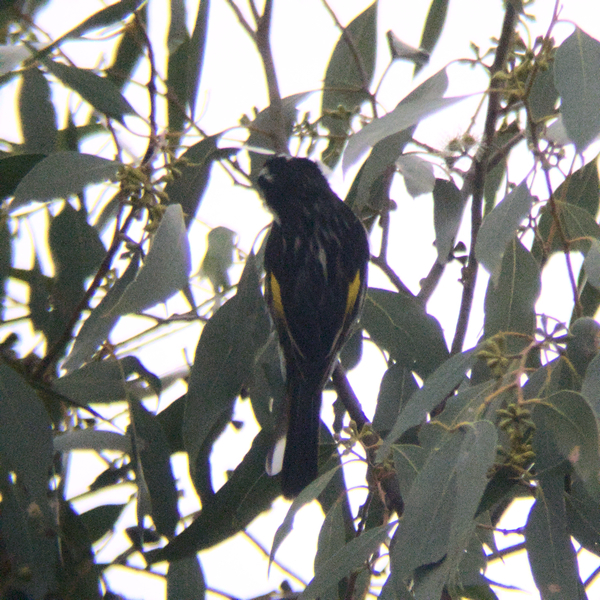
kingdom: Animalia
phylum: Chordata
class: Aves
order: Passeriformes
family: Meliphagidae
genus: Phylidonyris
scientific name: Phylidonyris novaehollandiae
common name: New holland honeyeater
